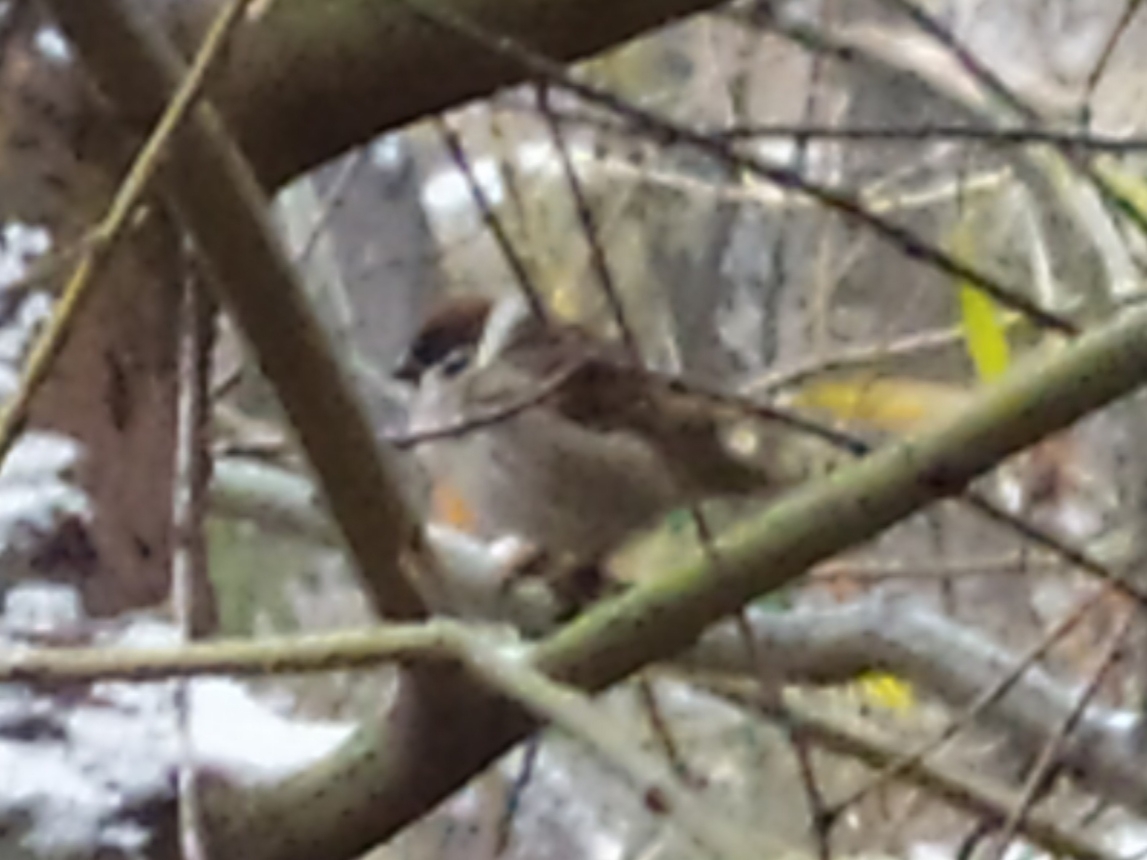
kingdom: Animalia
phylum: Chordata
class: Aves
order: Passeriformes
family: Passeridae
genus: Passer
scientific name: Passer montanus
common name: Eurasian tree sparrow
